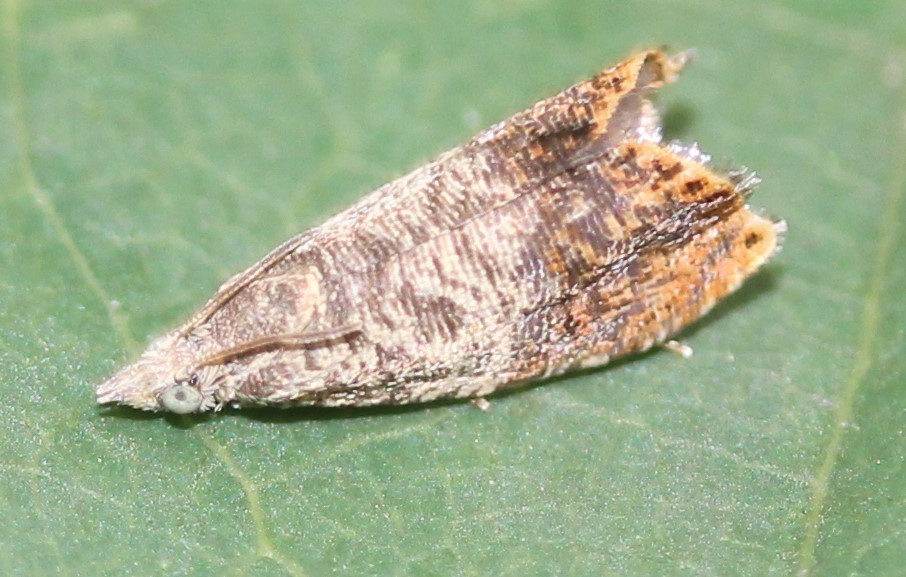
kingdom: Animalia
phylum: Arthropoda
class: Insecta
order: Lepidoptera
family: Tortricidae
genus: Talponia
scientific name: Talponia plummeriana
